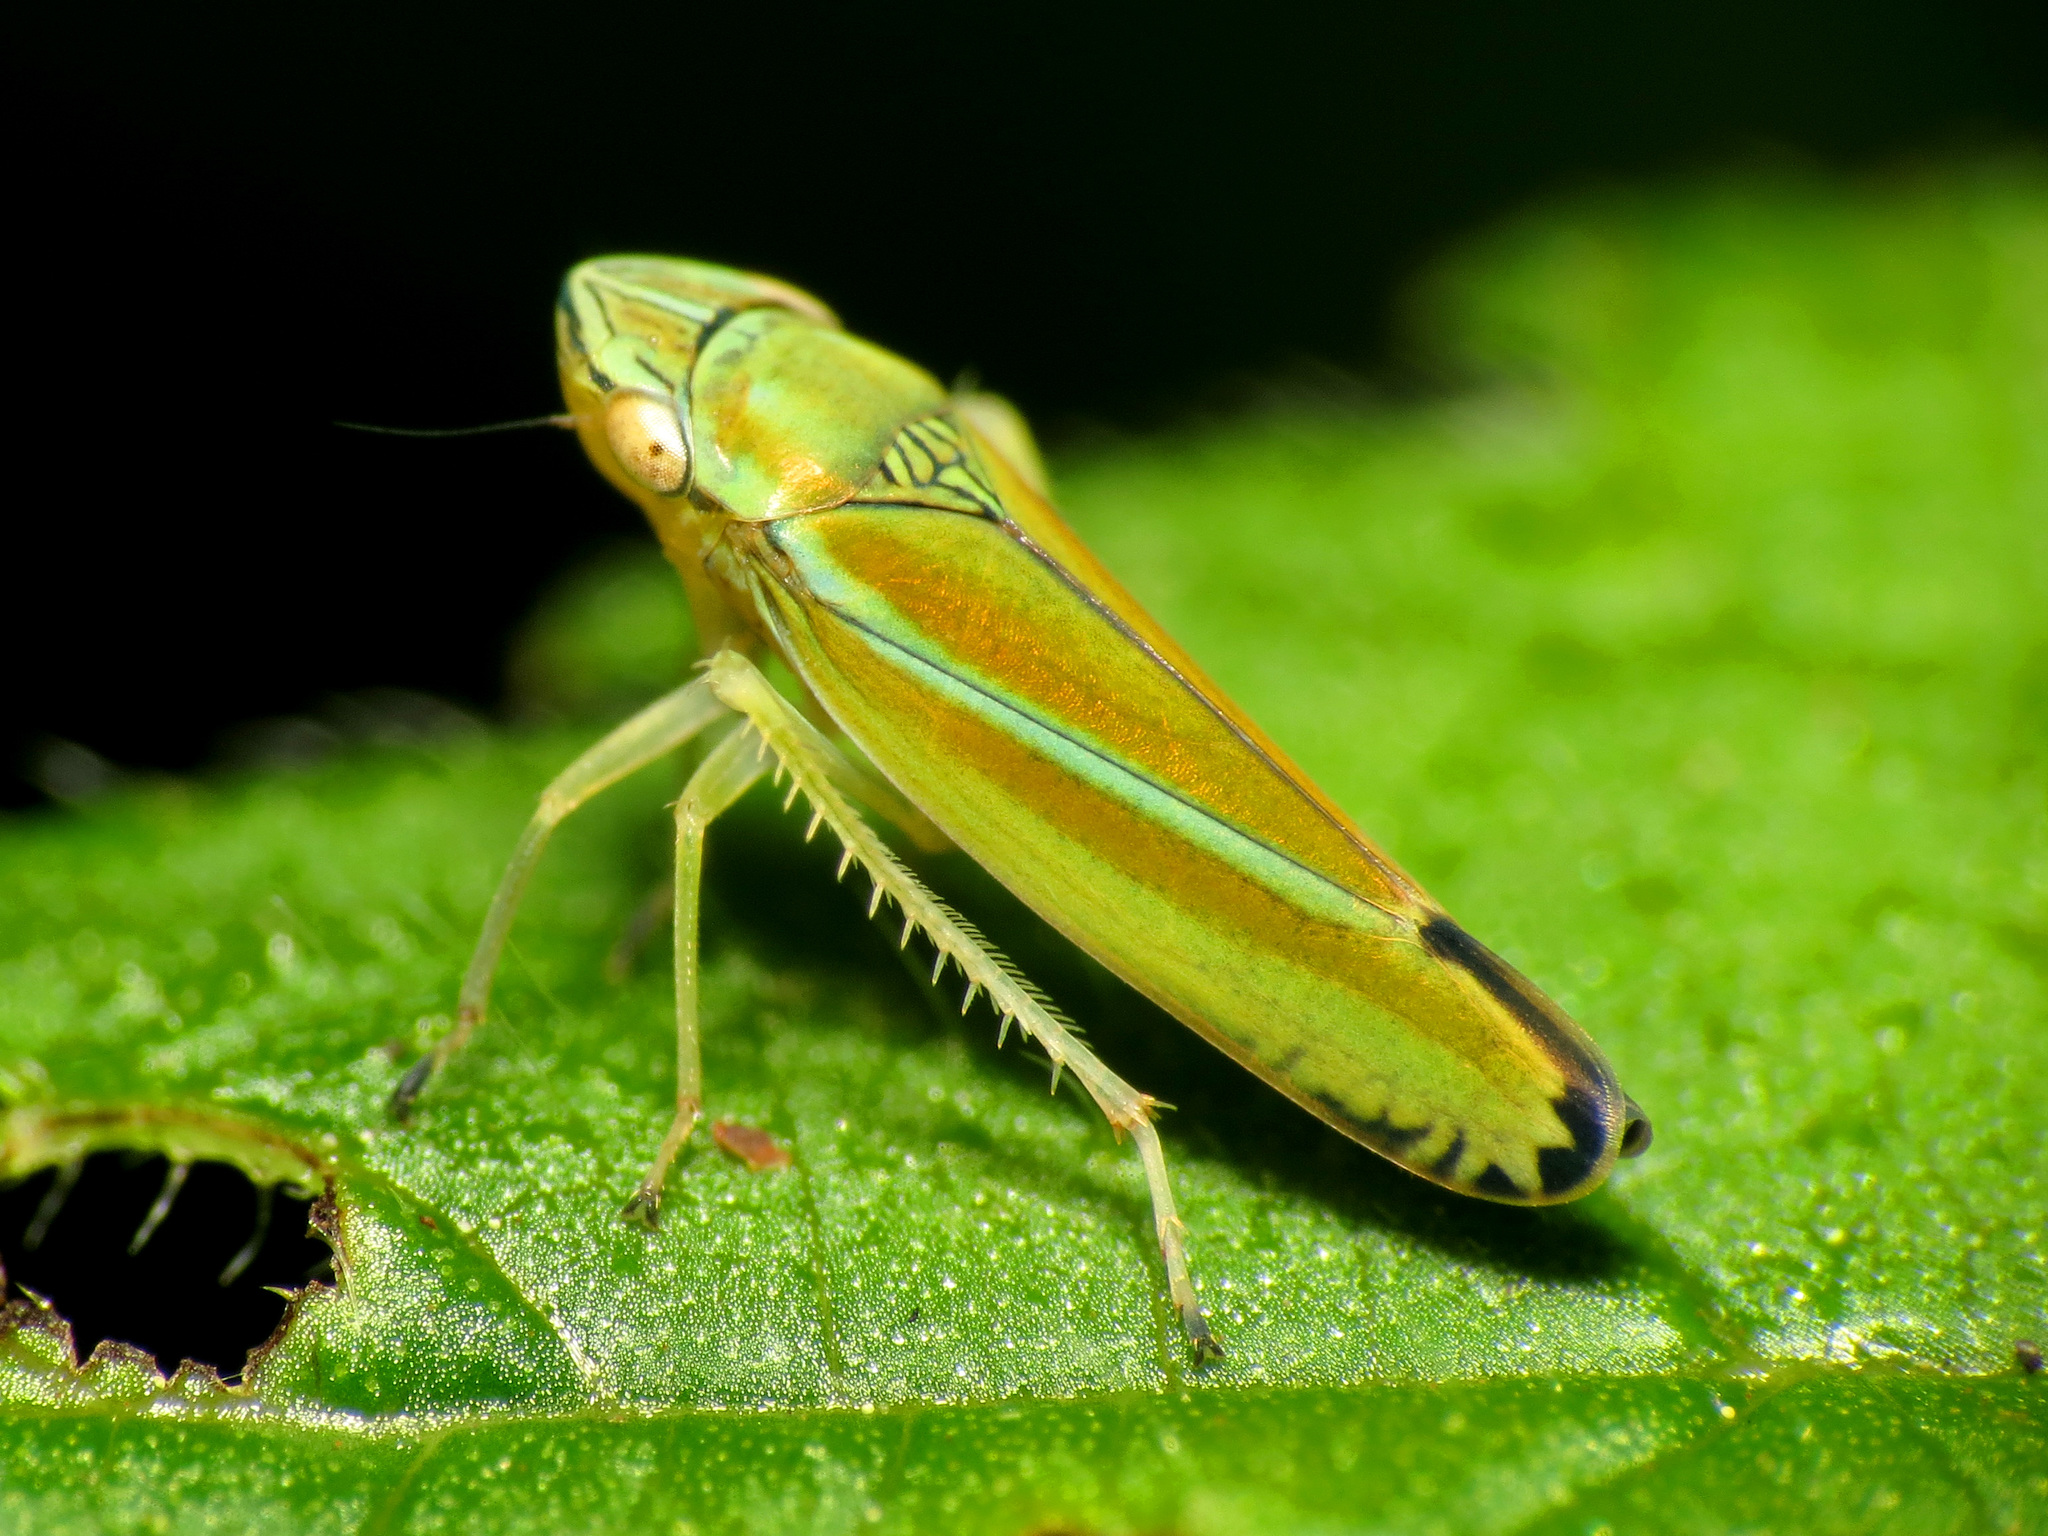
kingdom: Animalia
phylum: Arthropoda
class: Insecta
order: Hemiptera
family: Cicadellidae
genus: Graphocephala
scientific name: Graphocephala versuta
